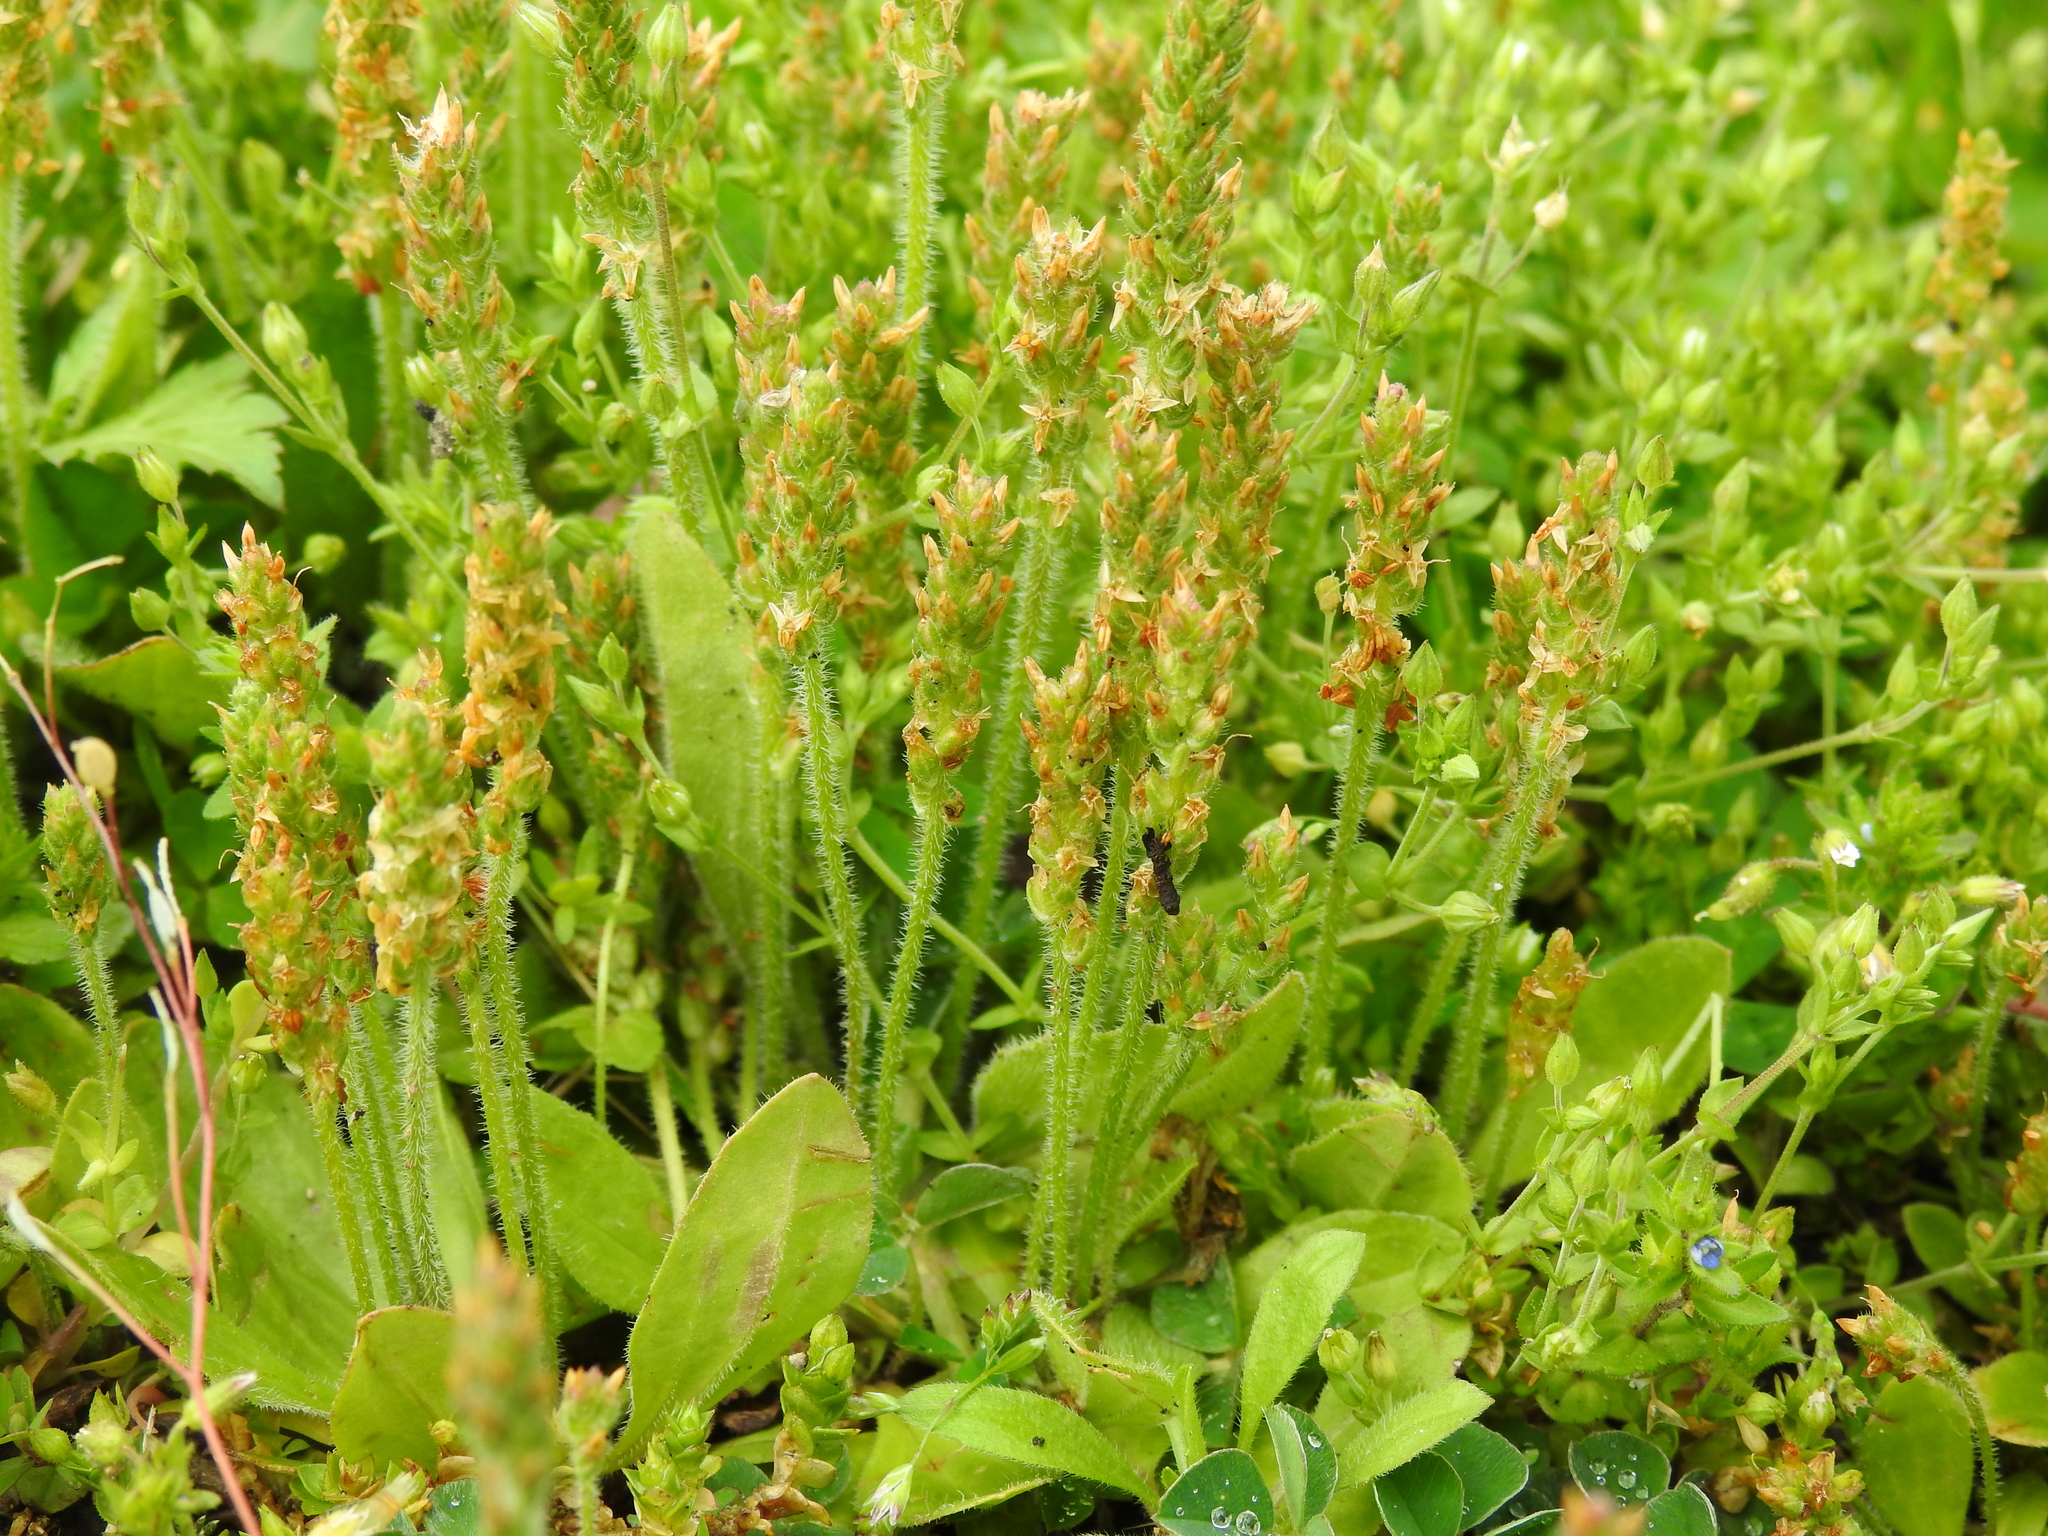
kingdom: Plantae
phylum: Tracheophyta
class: Magnoliopsida
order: Lamiales
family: Plantaginaceae
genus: Plantago
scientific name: Plantago virginica
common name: Hoary plantain
